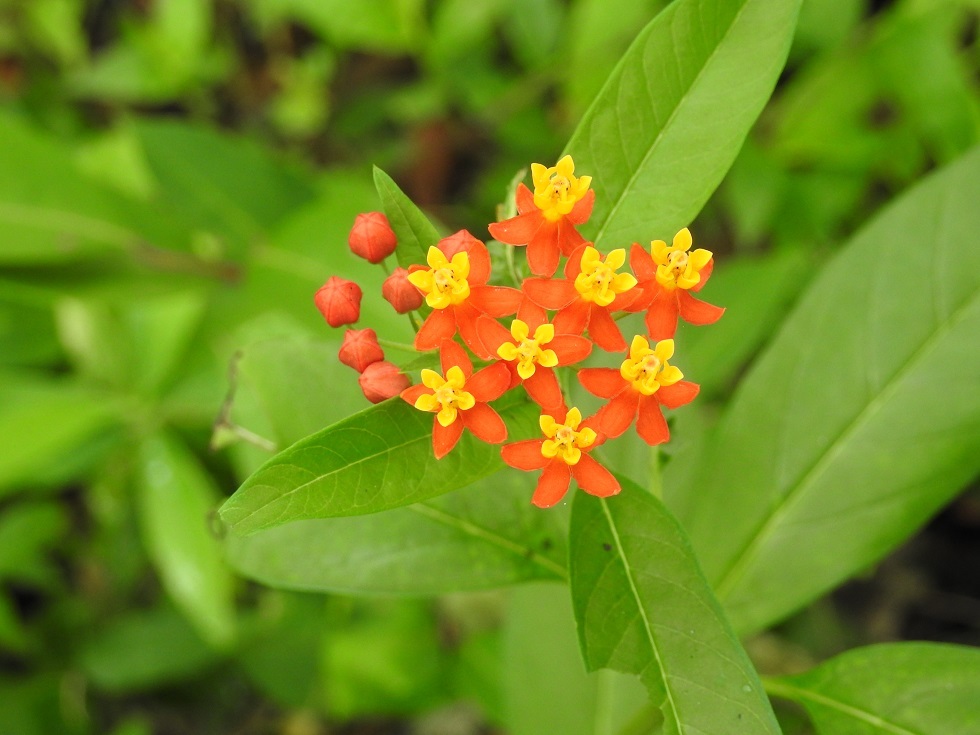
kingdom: Plantae
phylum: Tracheophyta
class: Magnoliopsida
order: Gentianales
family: Apocynaceae
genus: Asclepias
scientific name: Asclepias curassavica
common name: Bloodflower
